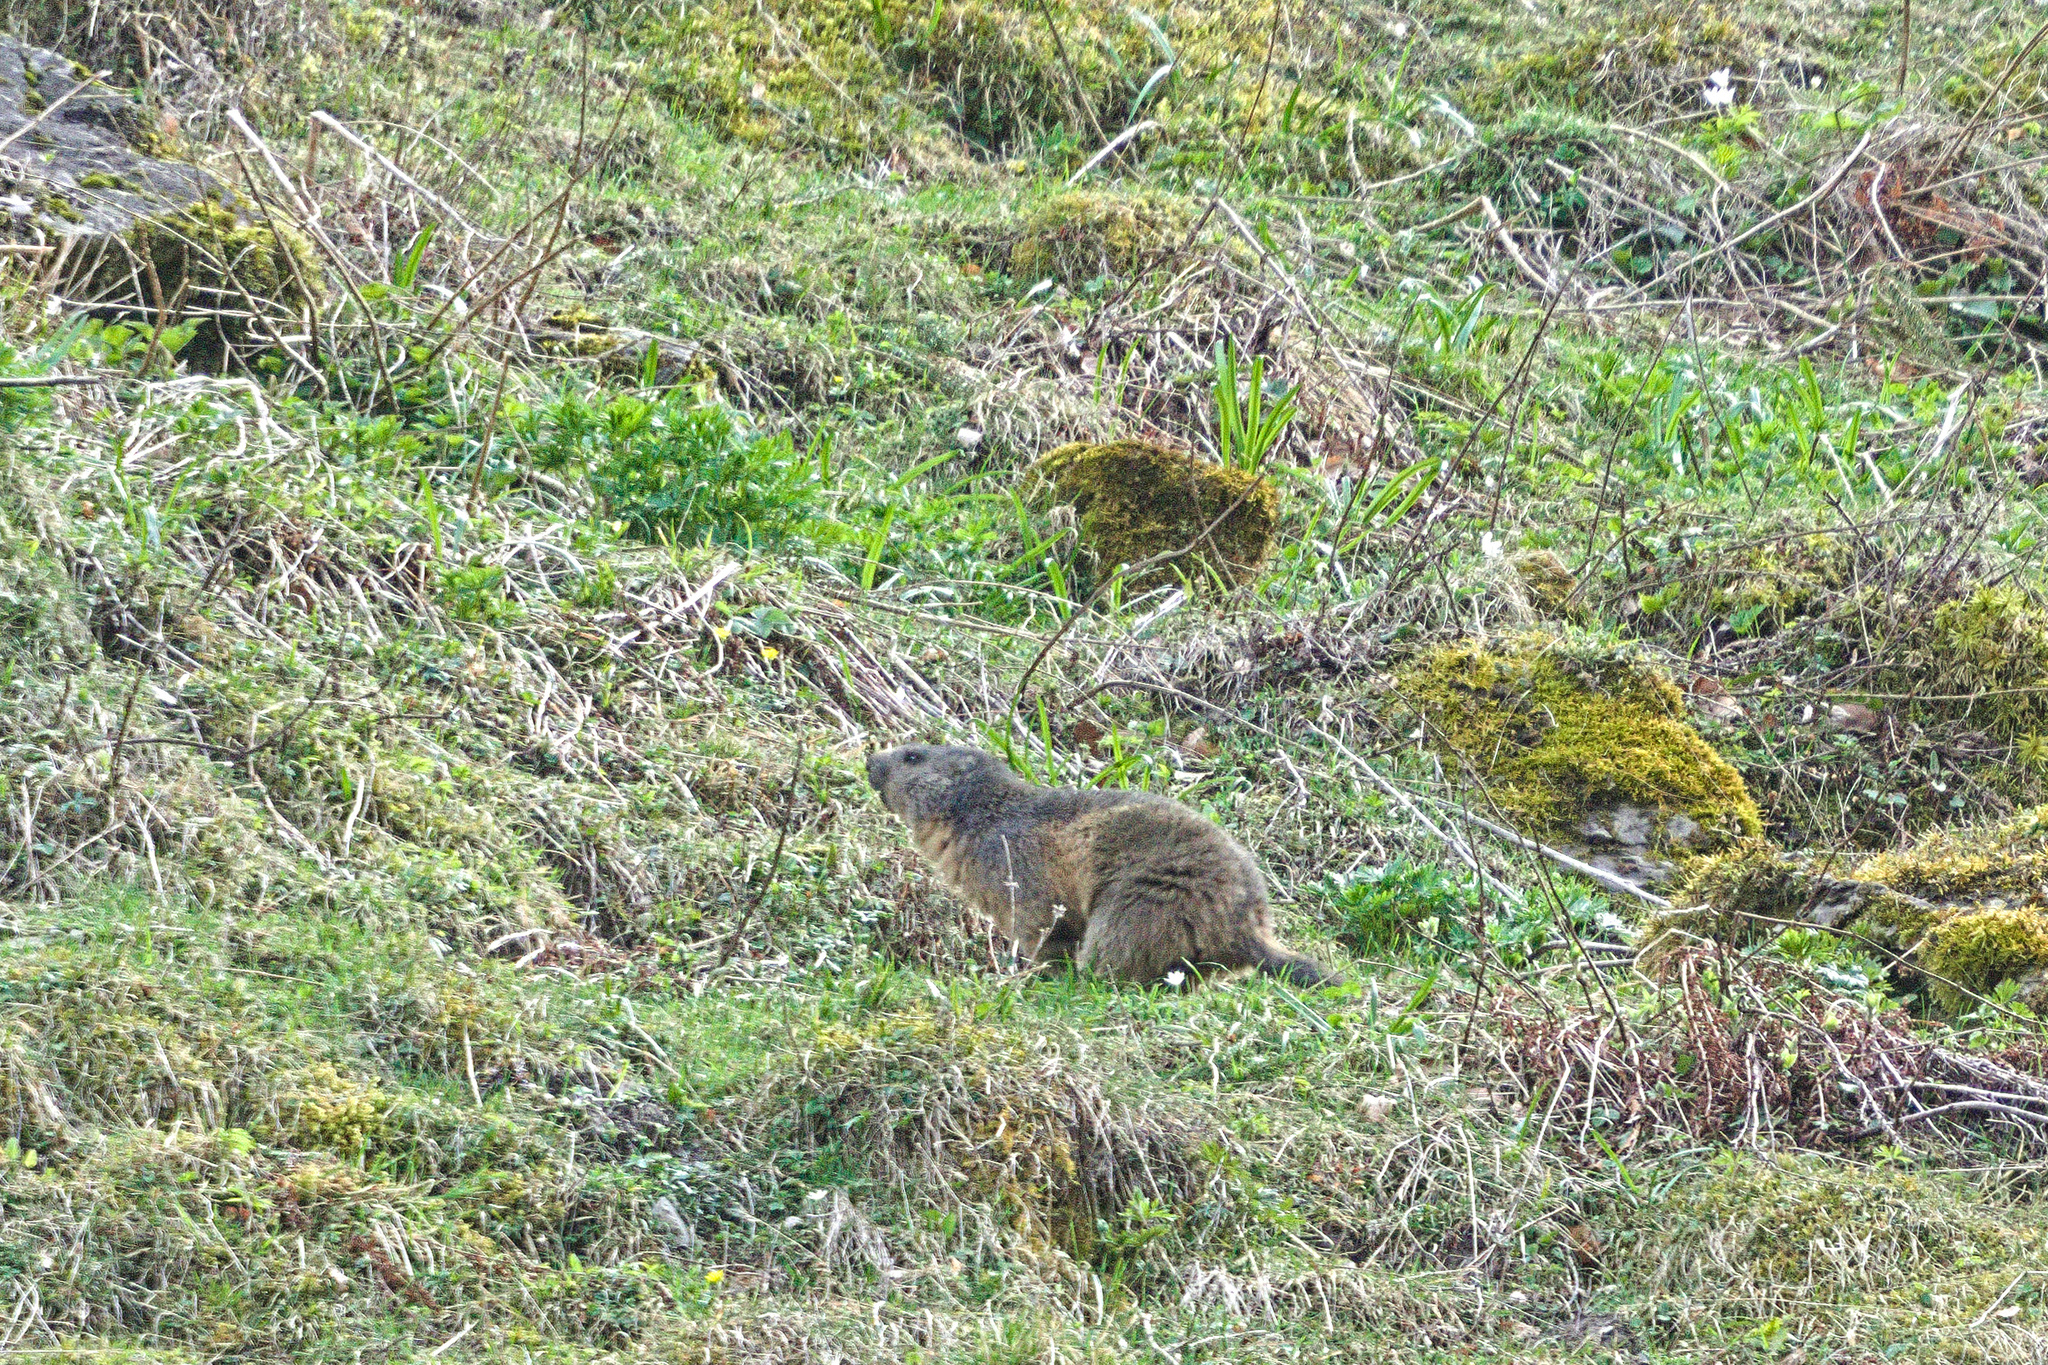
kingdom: Animalia
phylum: Chordata
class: Mammalia
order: Rodentia
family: Sciuridae
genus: Marmota
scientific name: Marmota marmota
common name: Alpine marmot
